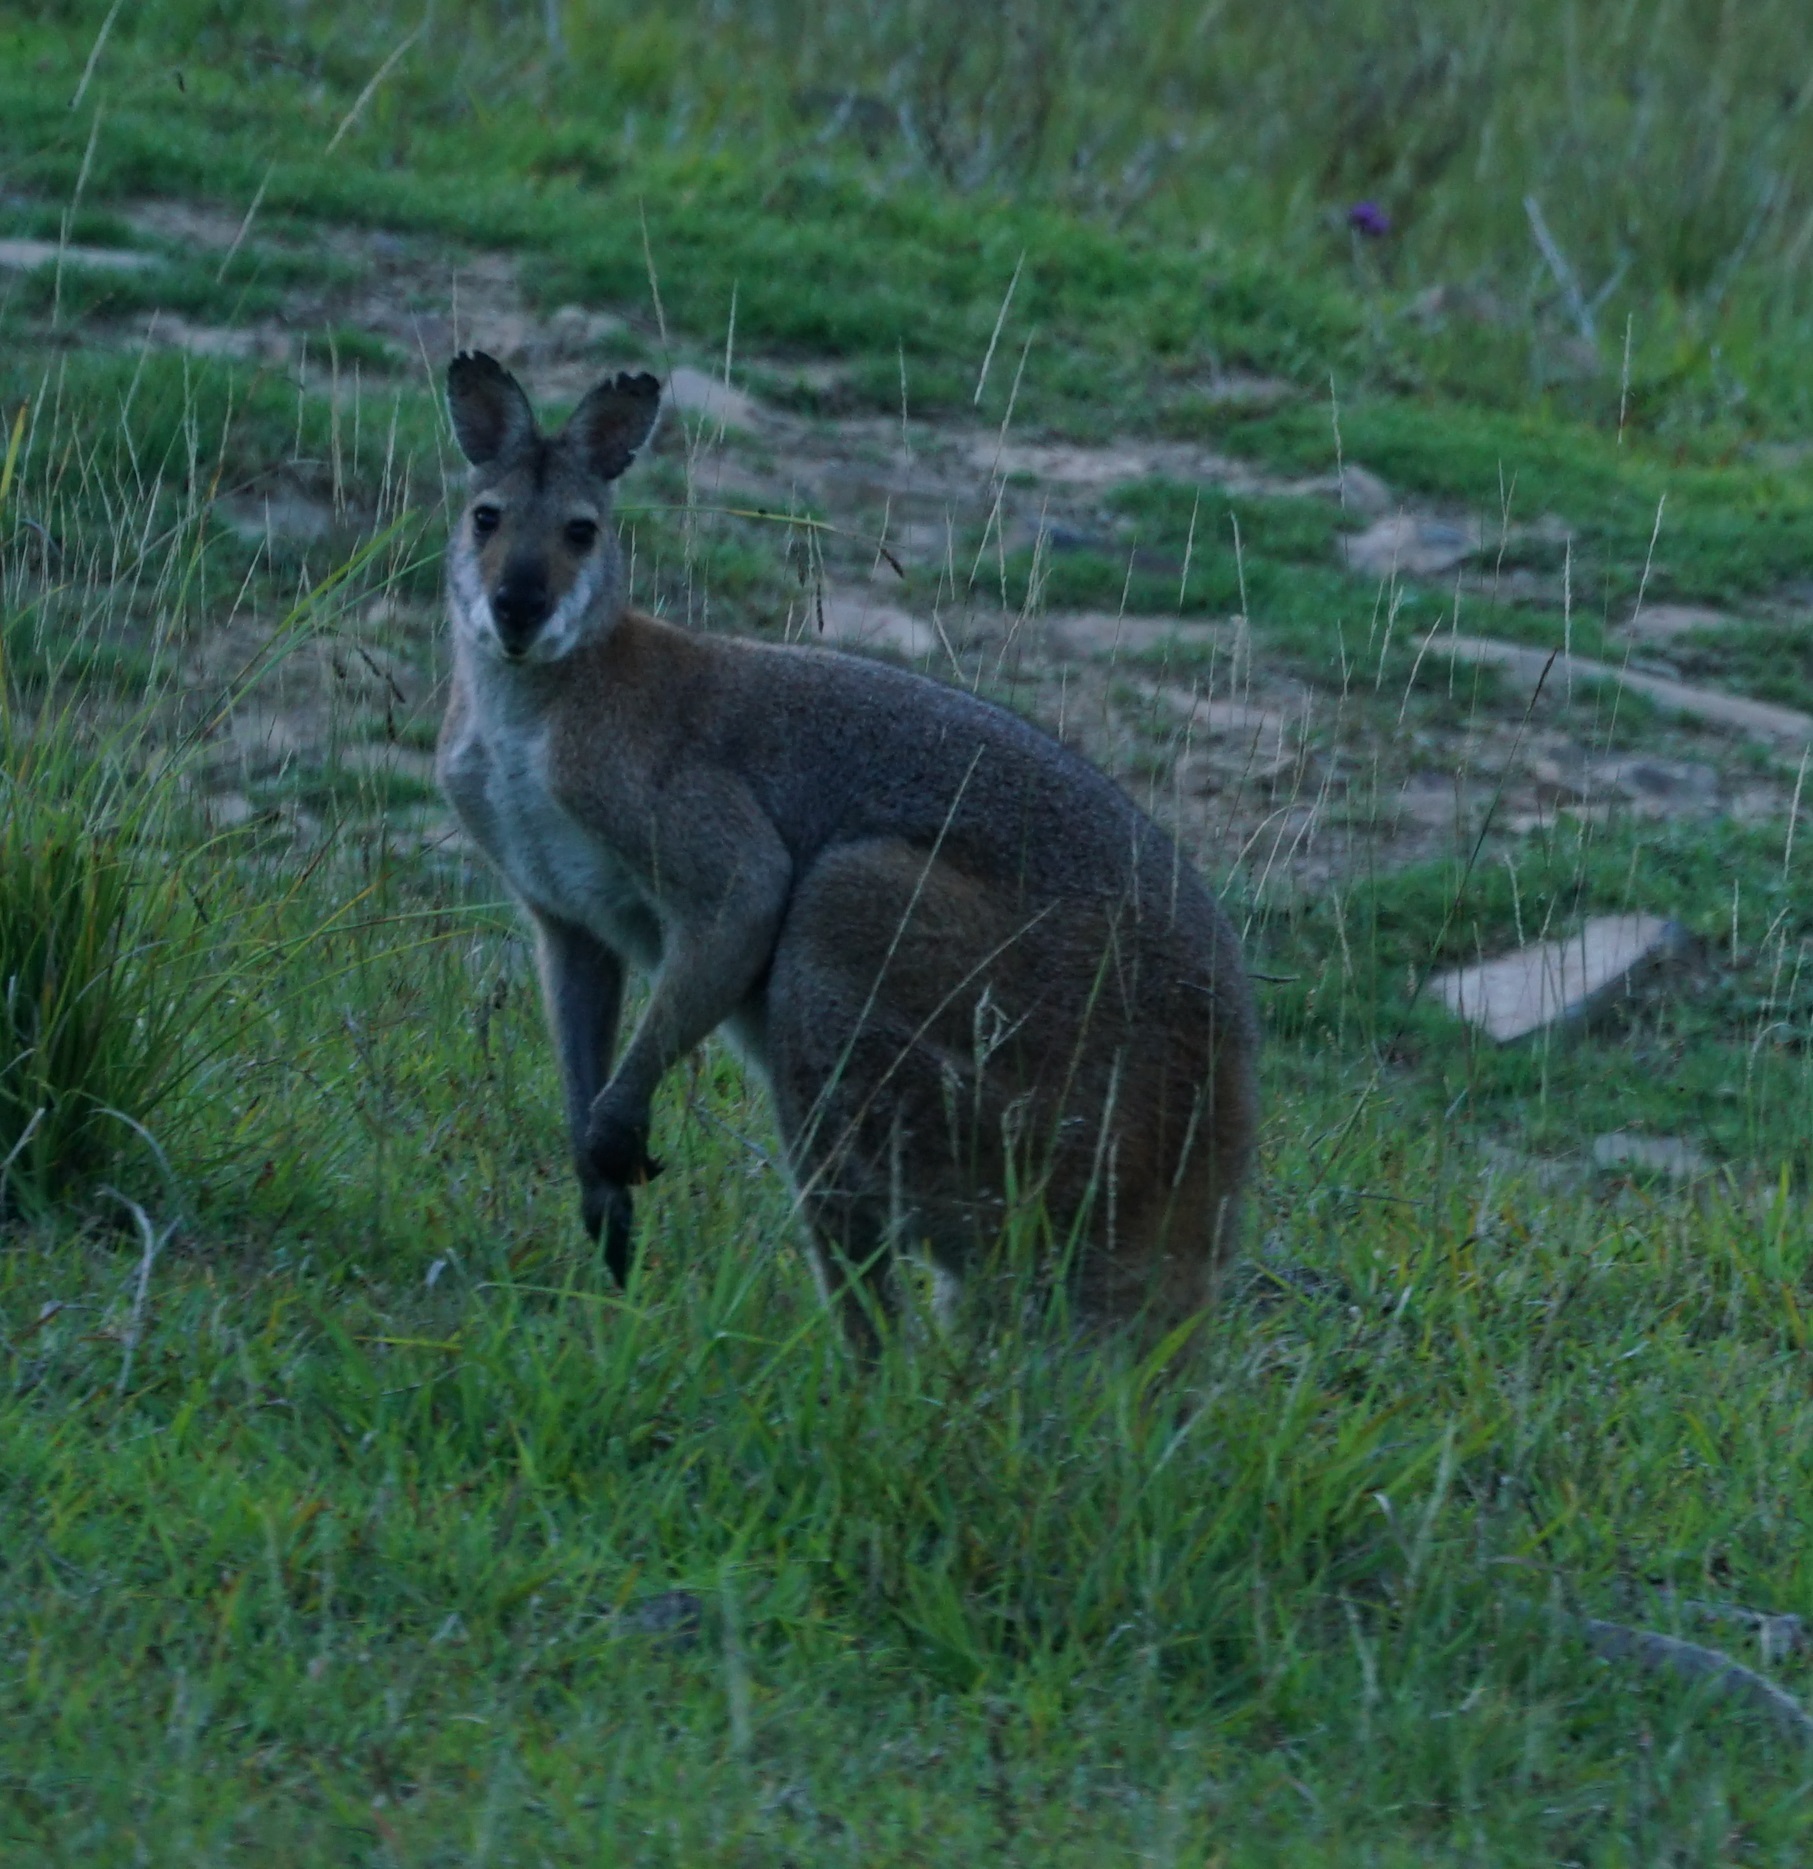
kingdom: Animalia
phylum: Chordata
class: Mammalia
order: Diprotodontia
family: Macropodidae
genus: Notamacropus
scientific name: Notamacropus rufogriseus
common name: Red-necked wallaby
